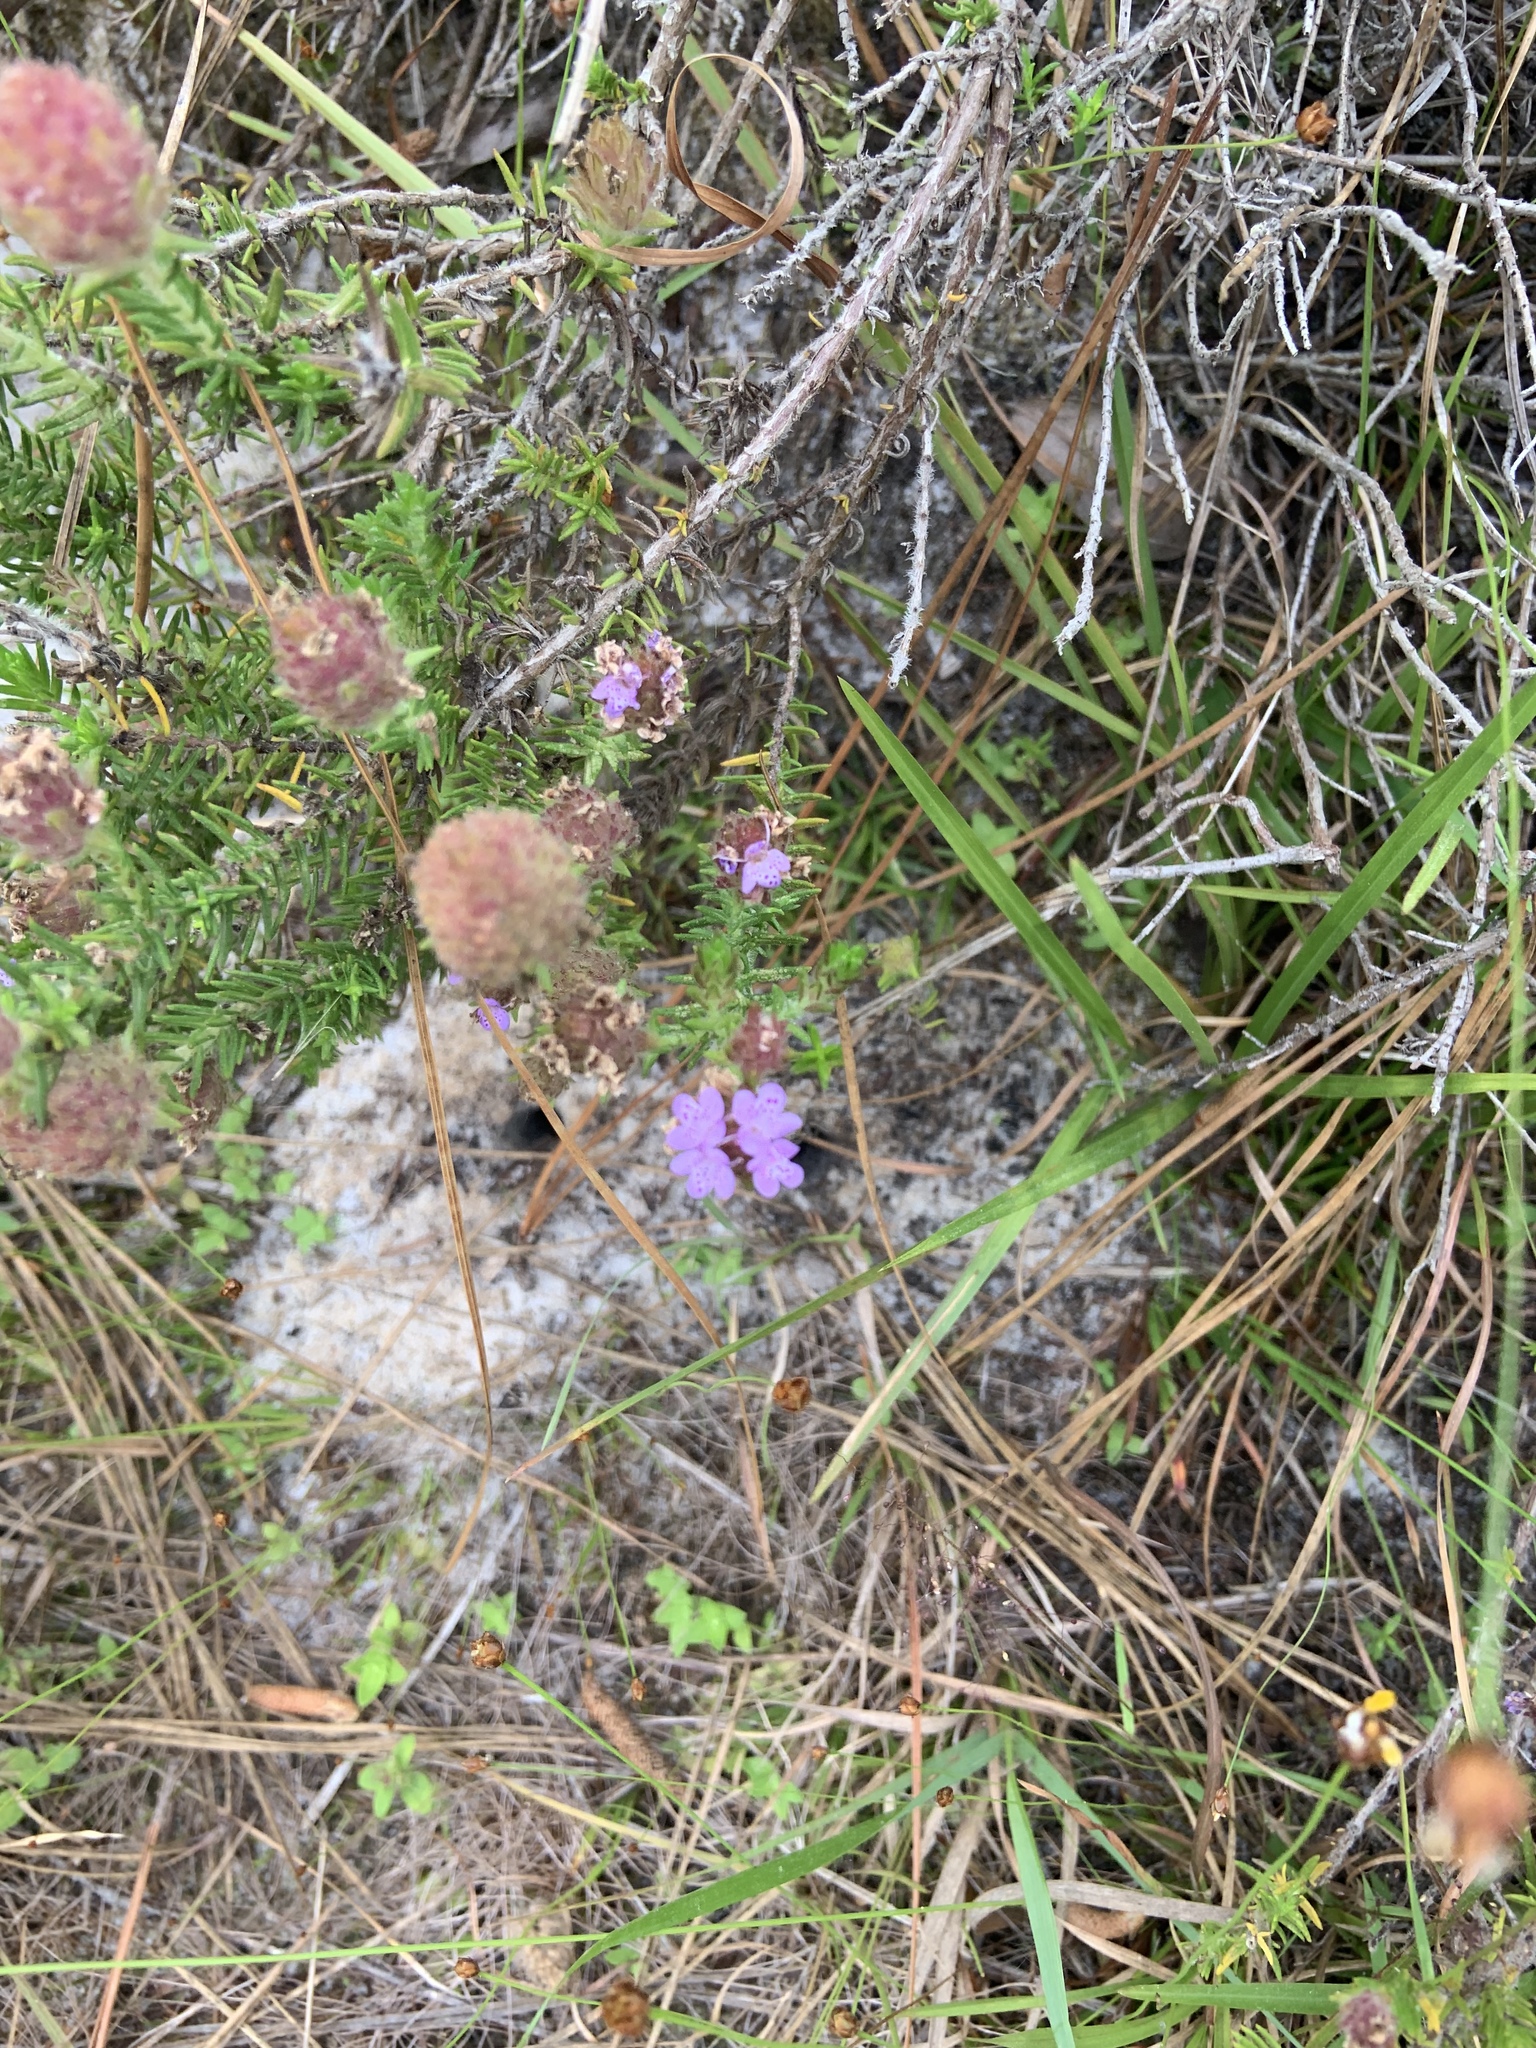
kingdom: Plantae
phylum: Tracheophyta
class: Magnoliopsida
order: Lamiales
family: Lamiaceae
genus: Piloblephis
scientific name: Piloblephis rigida
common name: Wild pennyroyal
